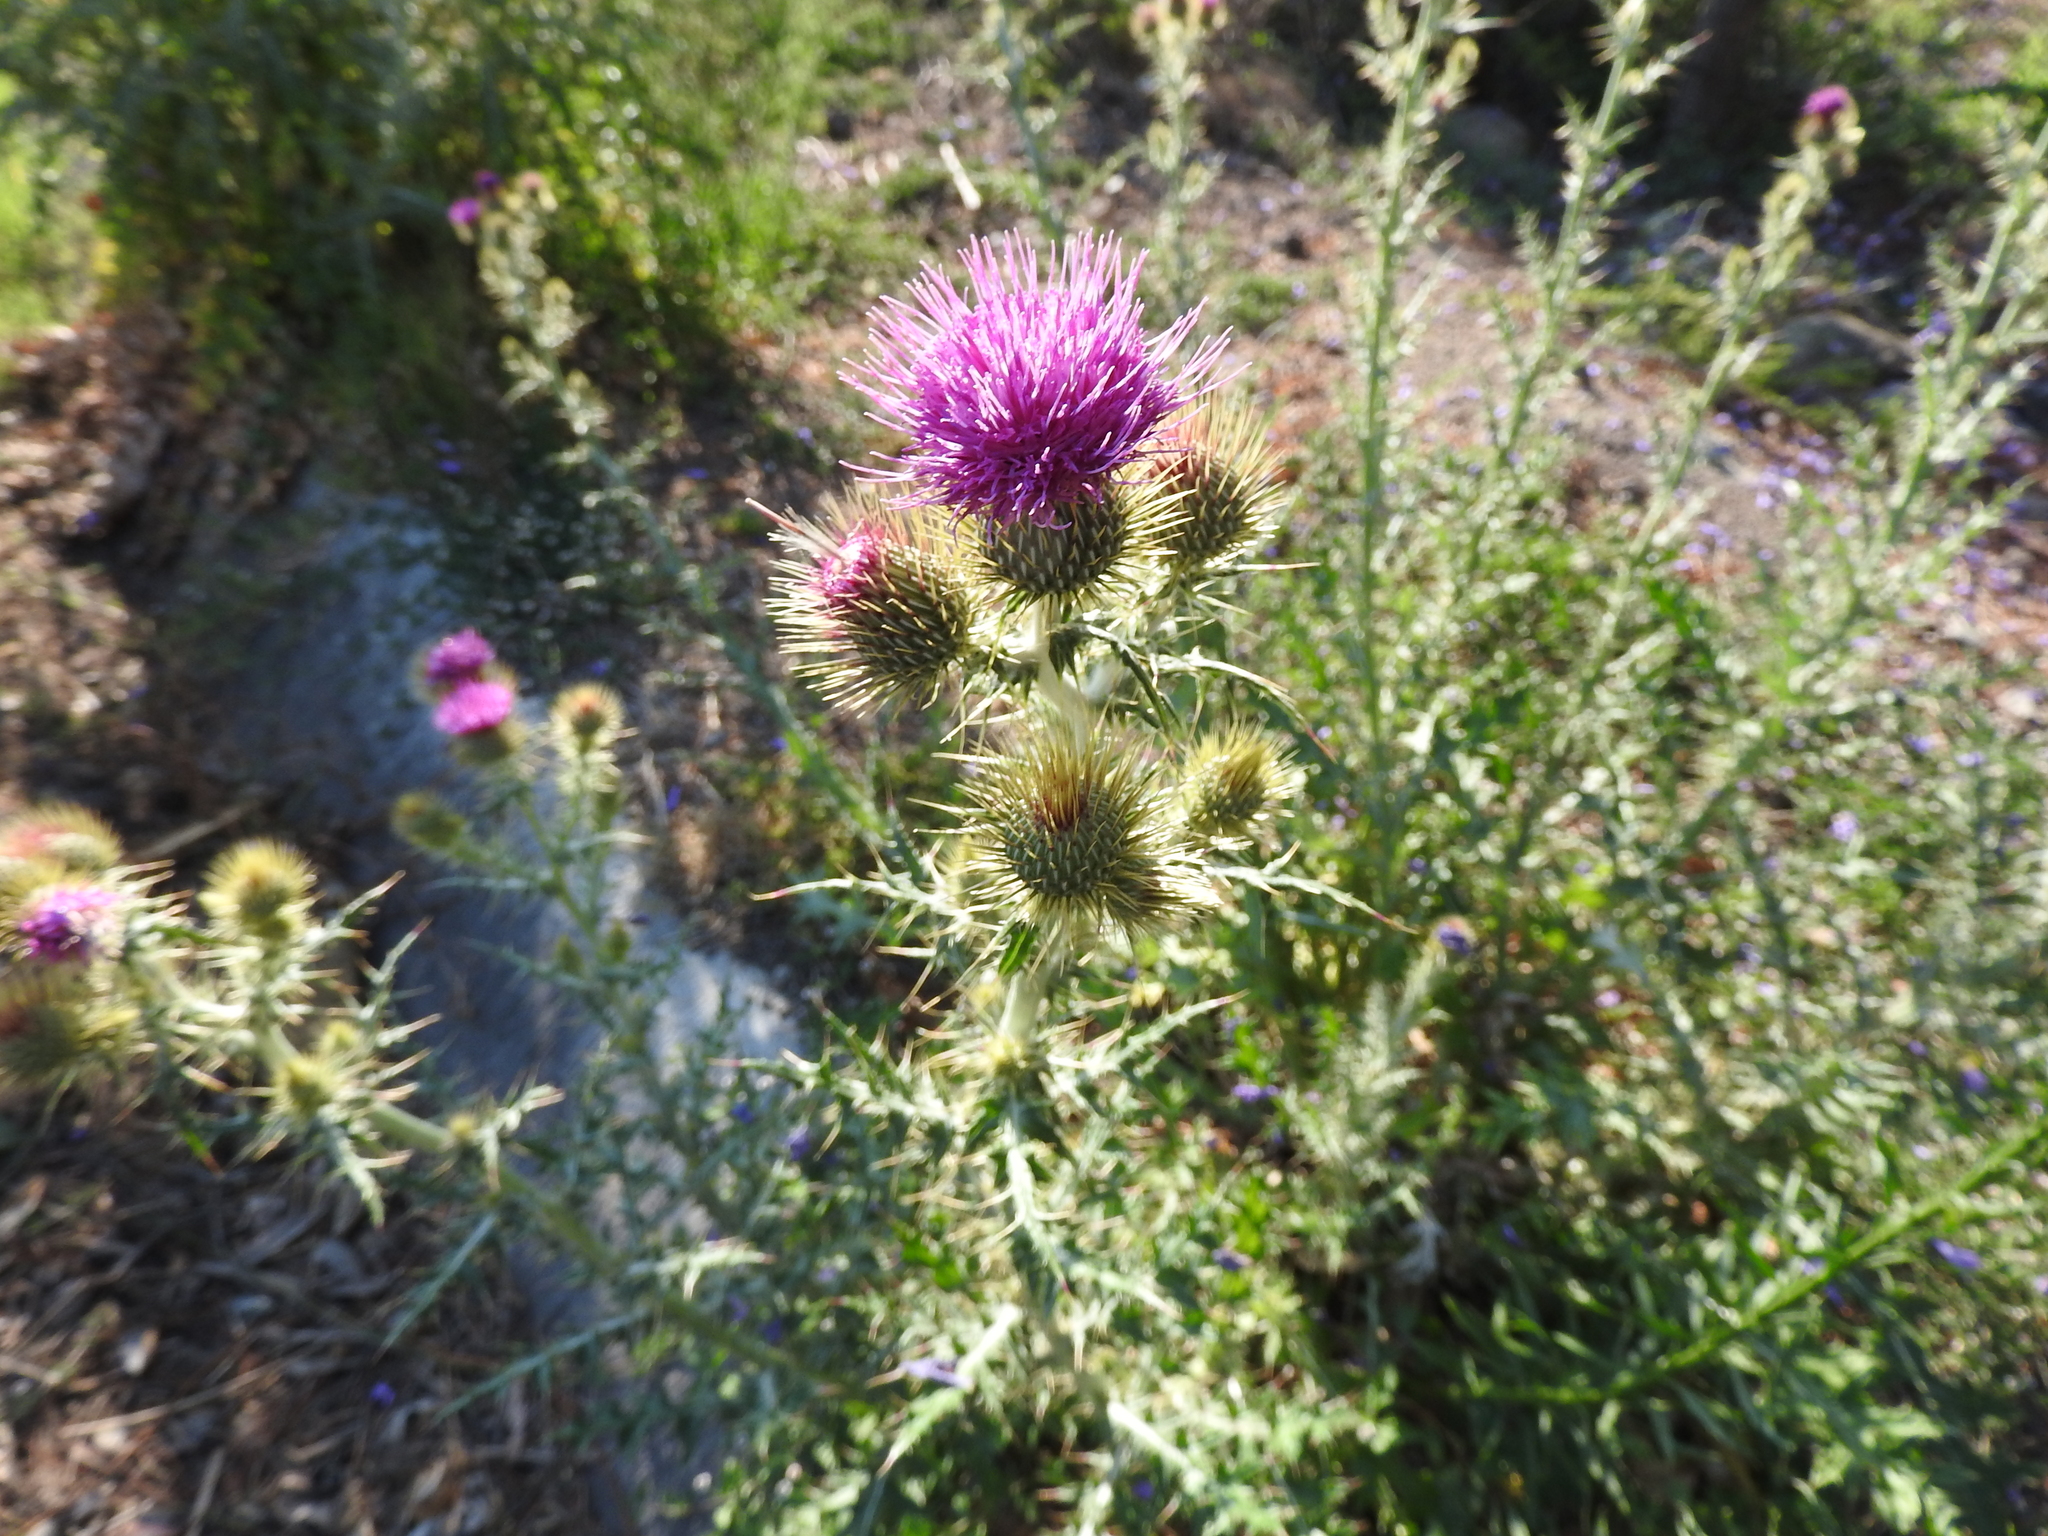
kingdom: Plantae
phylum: Tracheophyta
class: Magnoliopsida
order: Asterales
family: Asteraceae
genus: Cirsium
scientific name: Cirsium rhaphilepis
